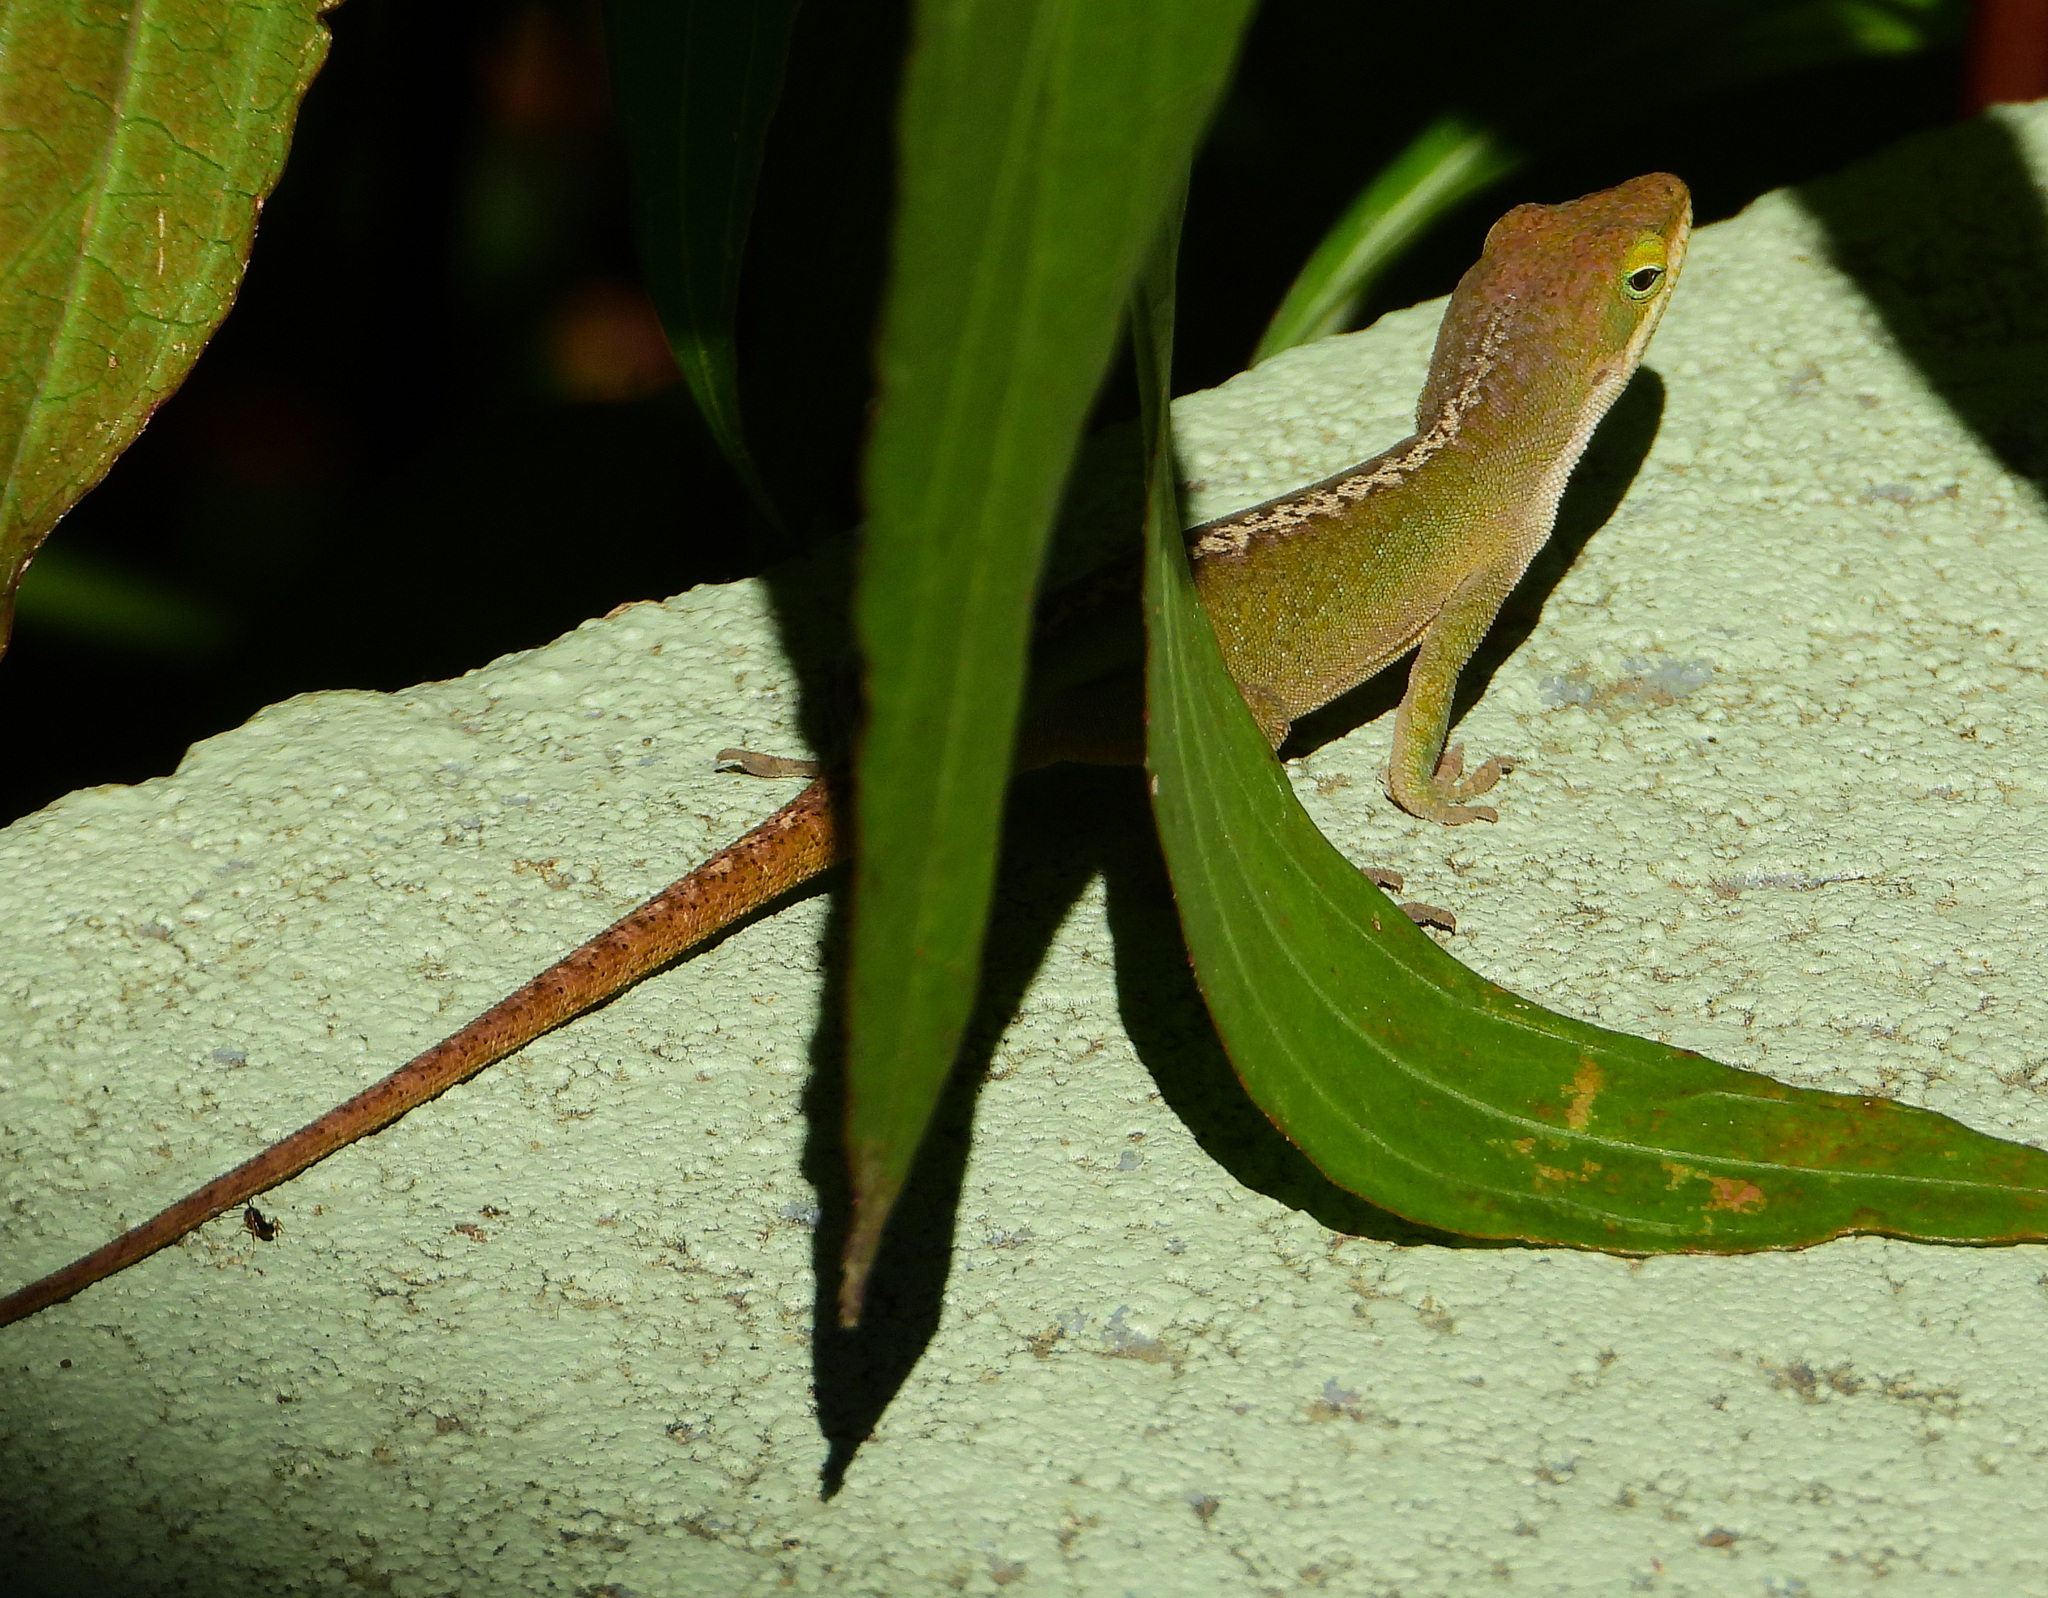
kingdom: Animalia
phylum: Chordata
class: Squamata
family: Dactyloidae
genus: Anolis
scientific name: Anolis carolinensis
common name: Green anole
